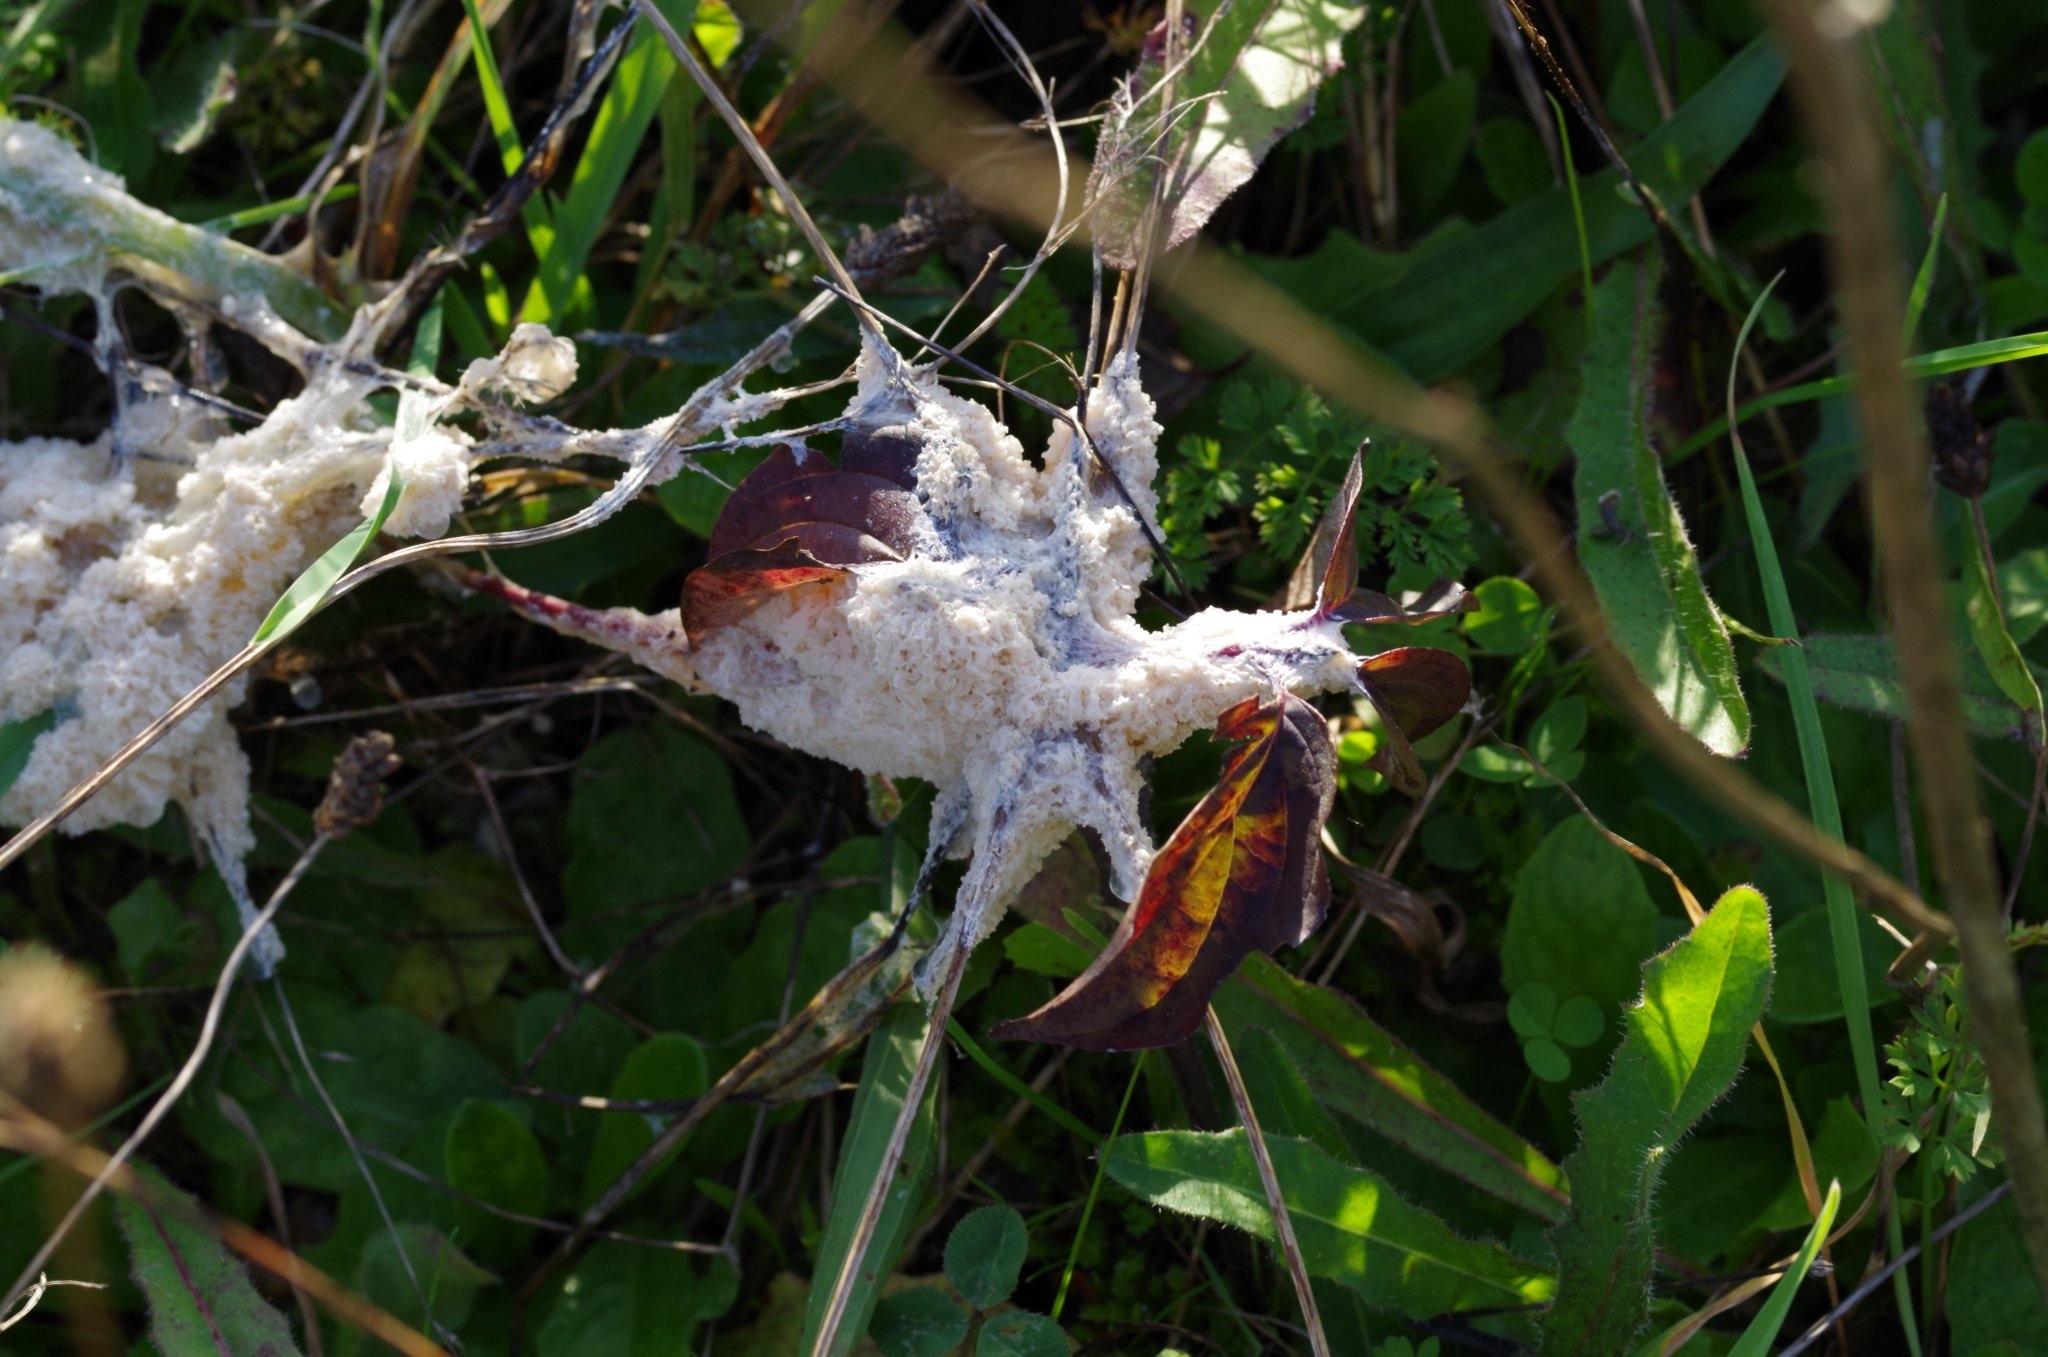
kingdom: Protozoa
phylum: Mycetozoa
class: Myxomycetes
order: Physarales
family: Physaraceae
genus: Didymium
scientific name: Didymium
